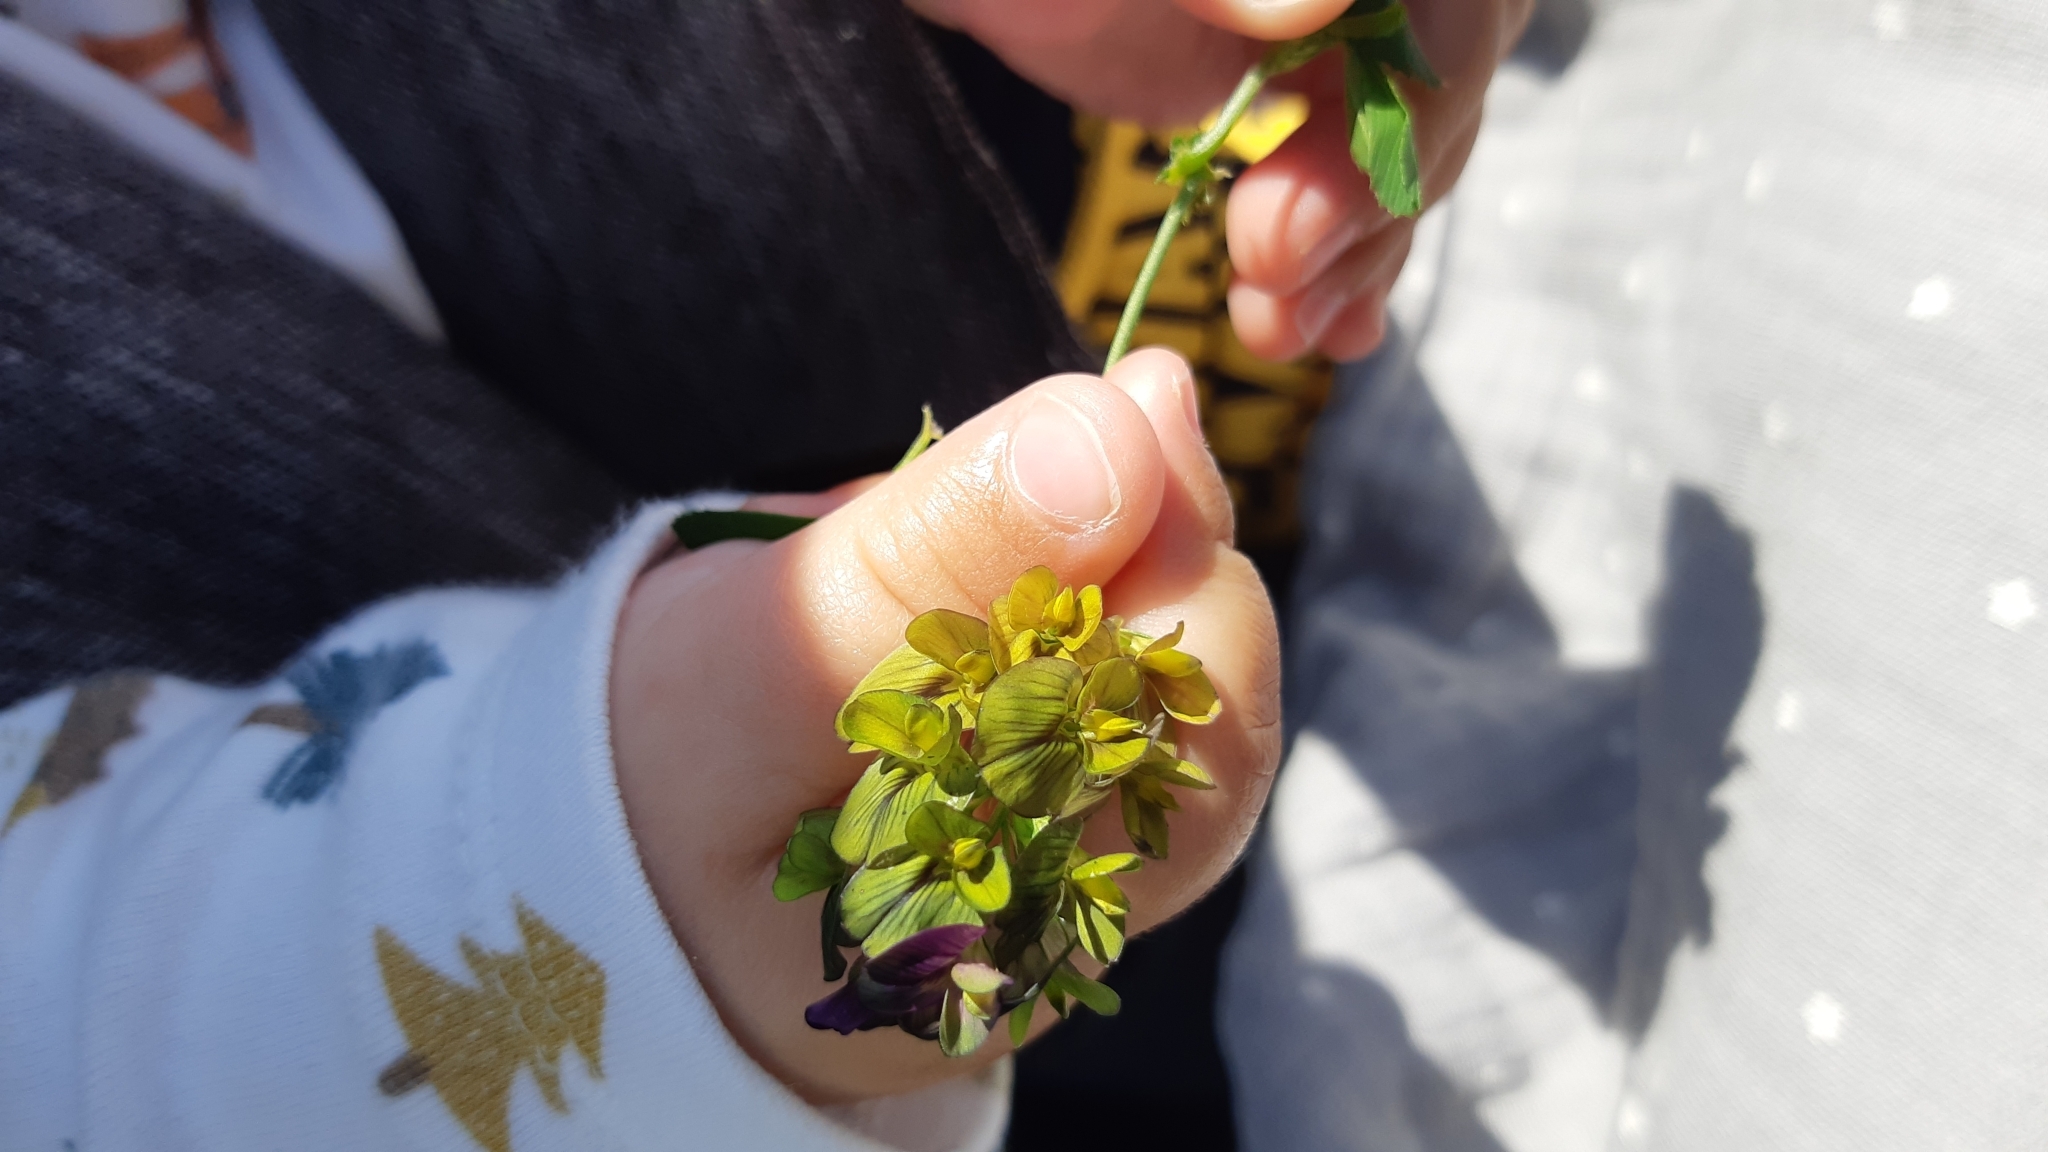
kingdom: Plantae
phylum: Tracheophyta
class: Magnoliopsida
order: Fabales
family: Fabaceae
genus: Medicago
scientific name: Medicago varia
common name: Sand lucerne
